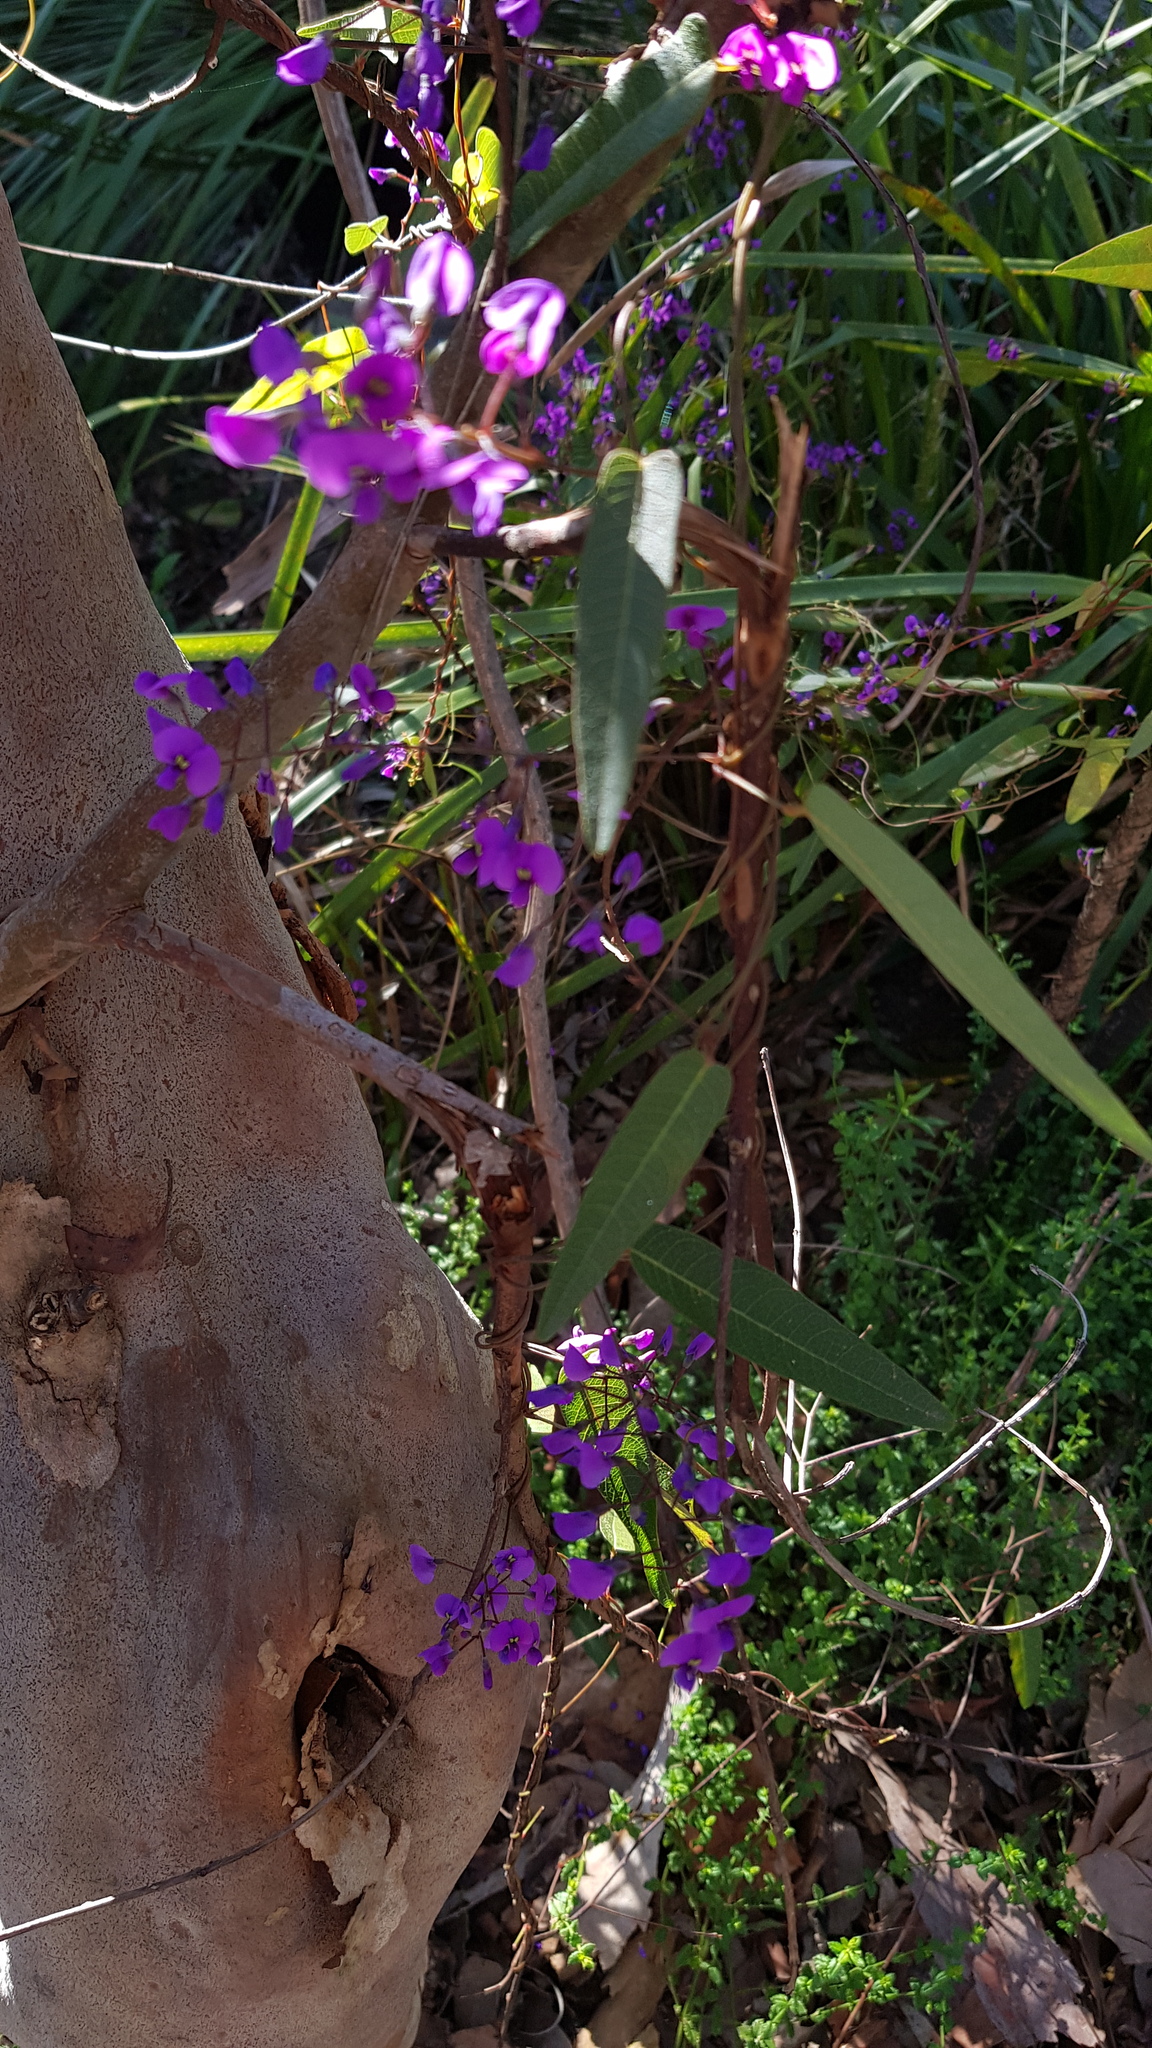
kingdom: Plantae
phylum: Tracheophyta
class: Magnoliopsida
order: Fabales
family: Fabaceae
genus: Hardenbergia
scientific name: Hardenbergia violacea
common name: Coral-pea
